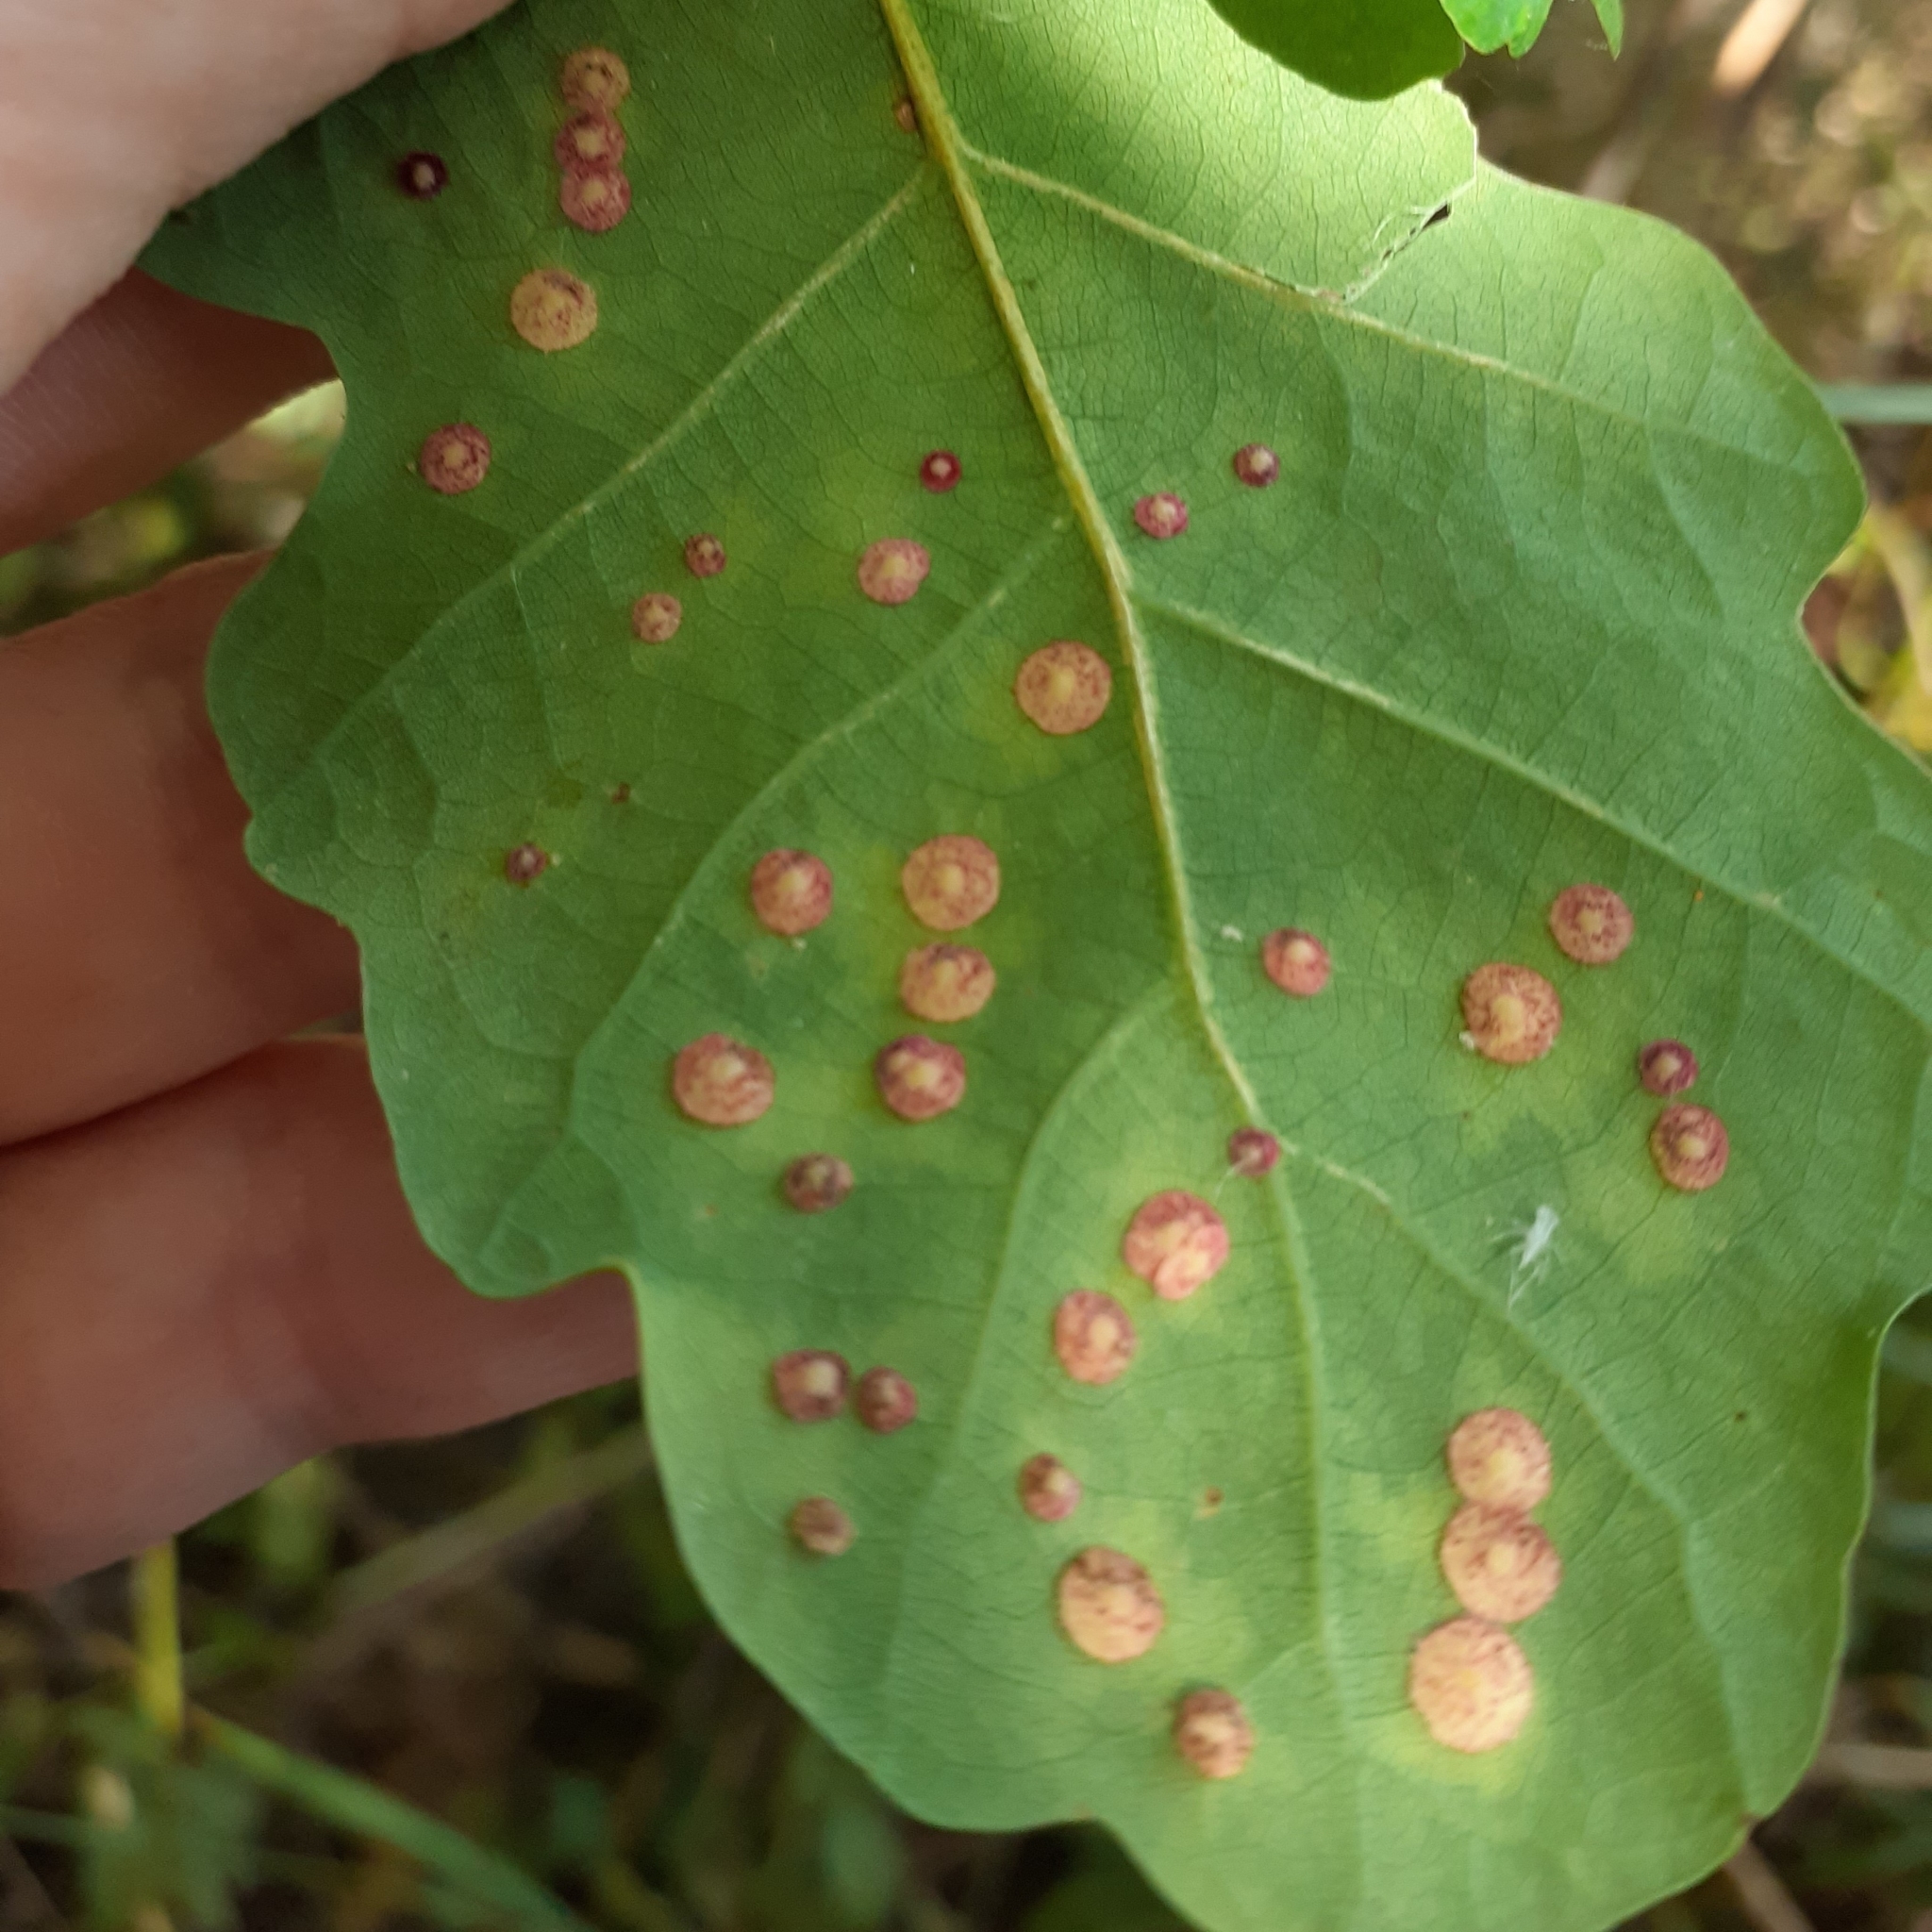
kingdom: Animalia
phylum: Arthropoda
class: Insecta
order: Hymenoptera
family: Cynipidae
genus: Neuroterus
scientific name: Neuroterus quercusbaccarum
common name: Common spangle gall
